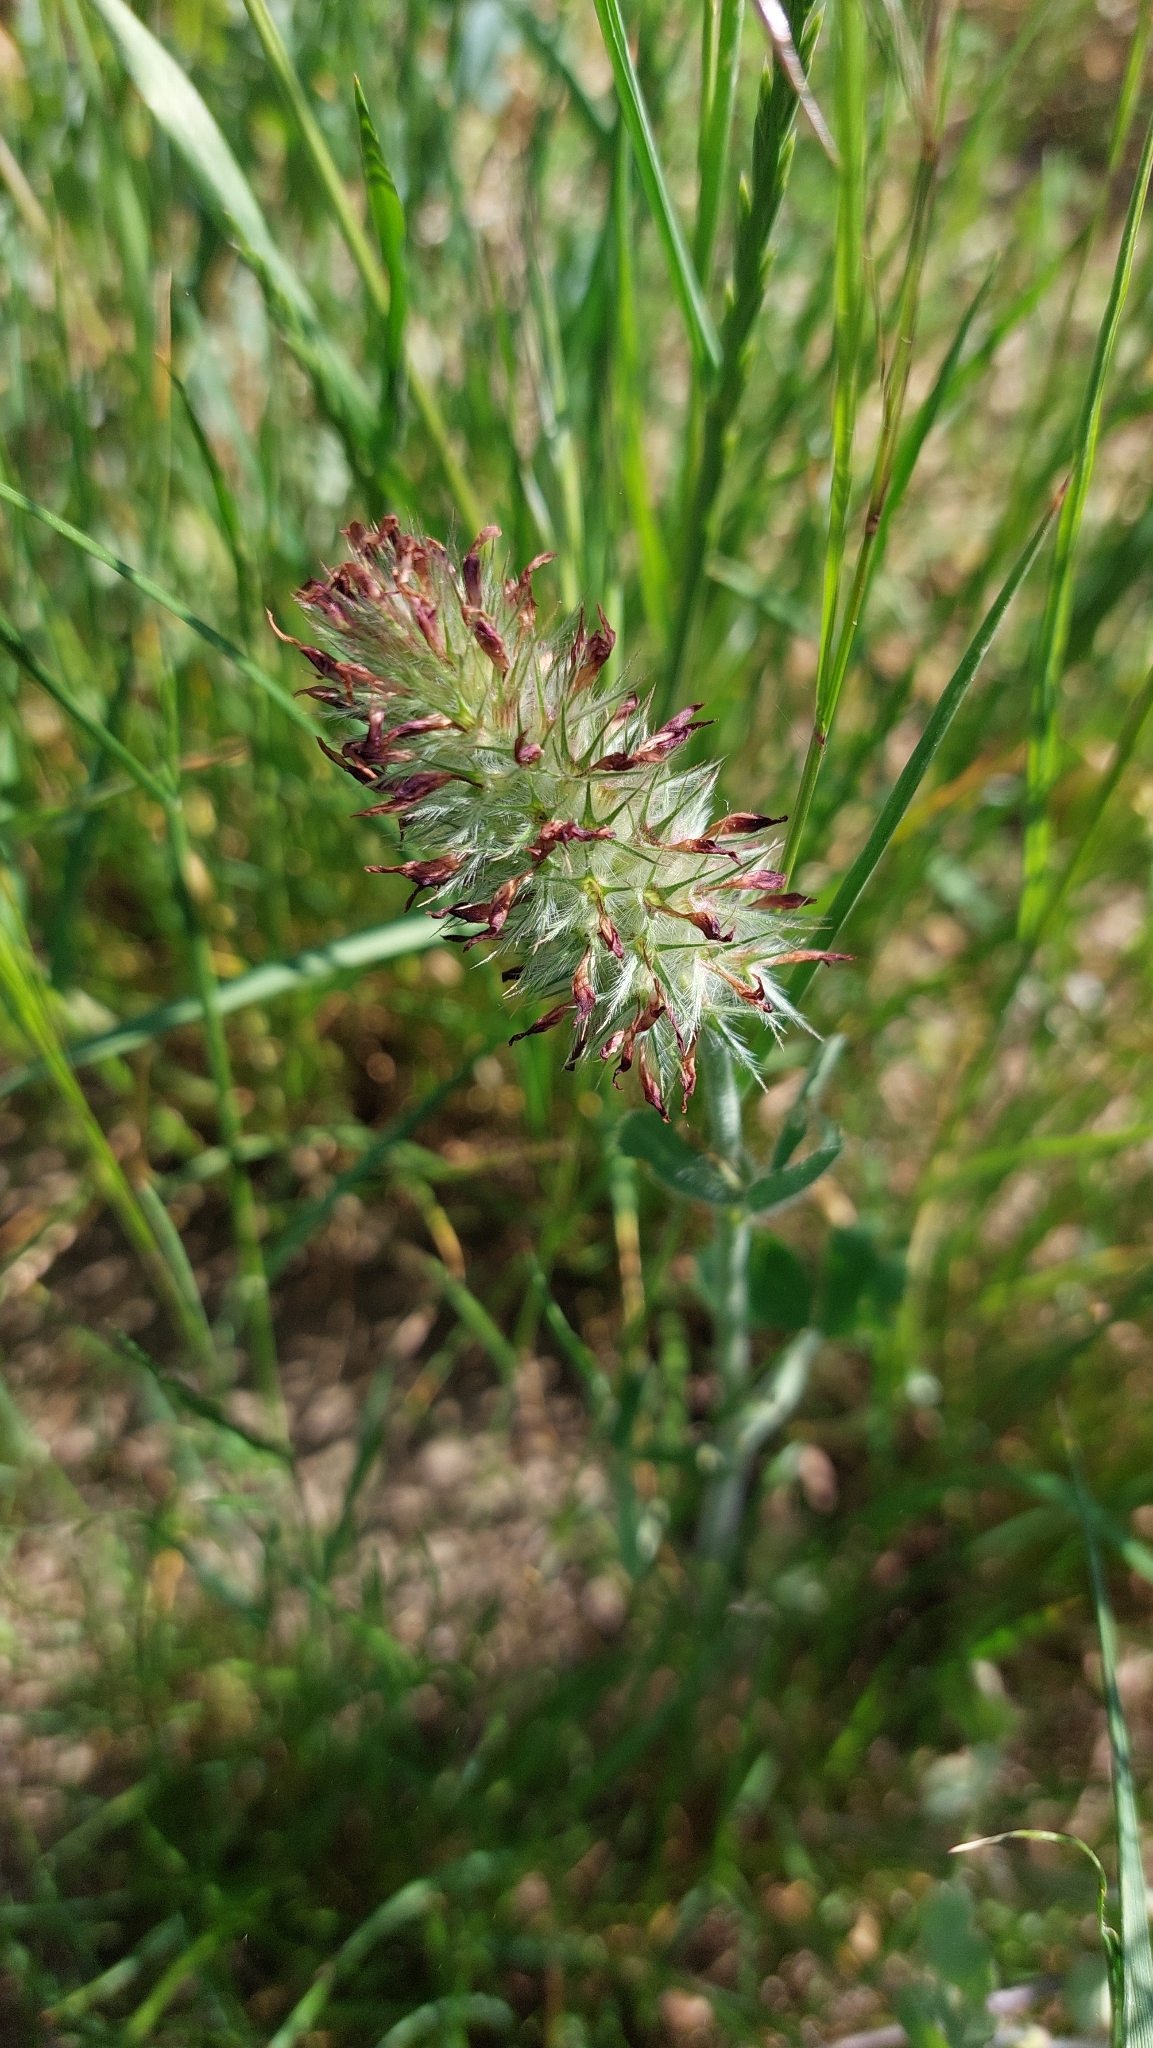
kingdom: Plantae
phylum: Tracheophyta
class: Magnoliopsida
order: Fabales
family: Fabaceae
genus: Trifolium
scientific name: Trifolium incarnatum
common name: Crimson clover
